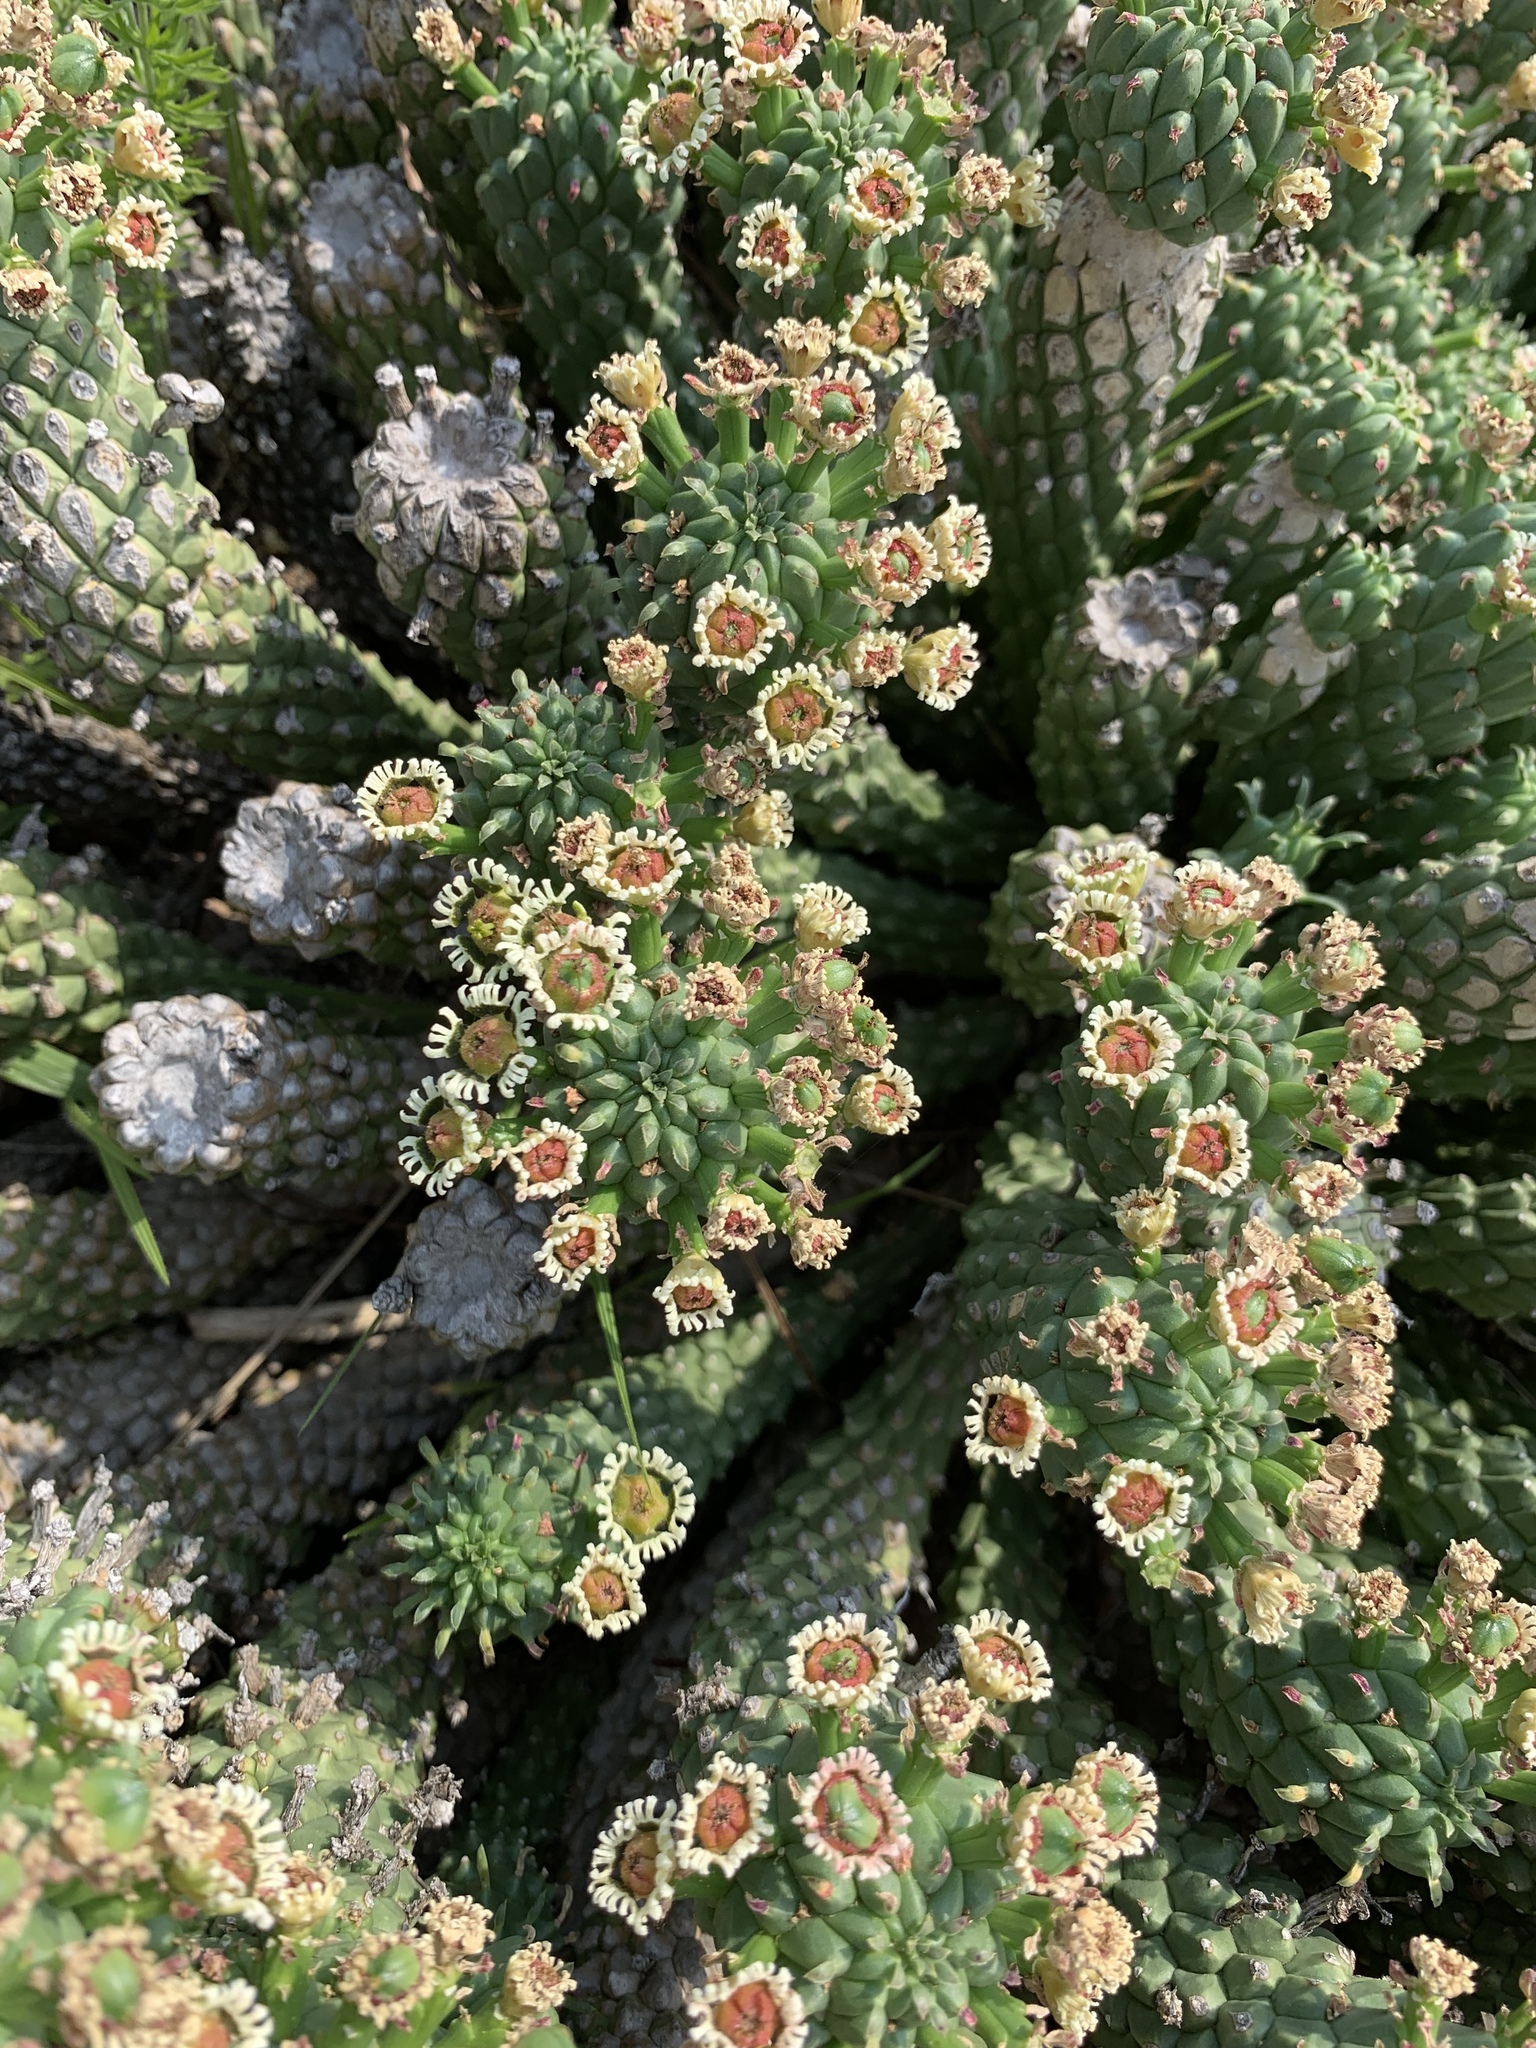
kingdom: Plantae
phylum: Tracheophyta
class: Magnoliopsida
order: Malpighiales
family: Euphorbiaceae
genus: Euphorbia
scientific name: Euphorbia caput-medusae
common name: Medusa's-head
